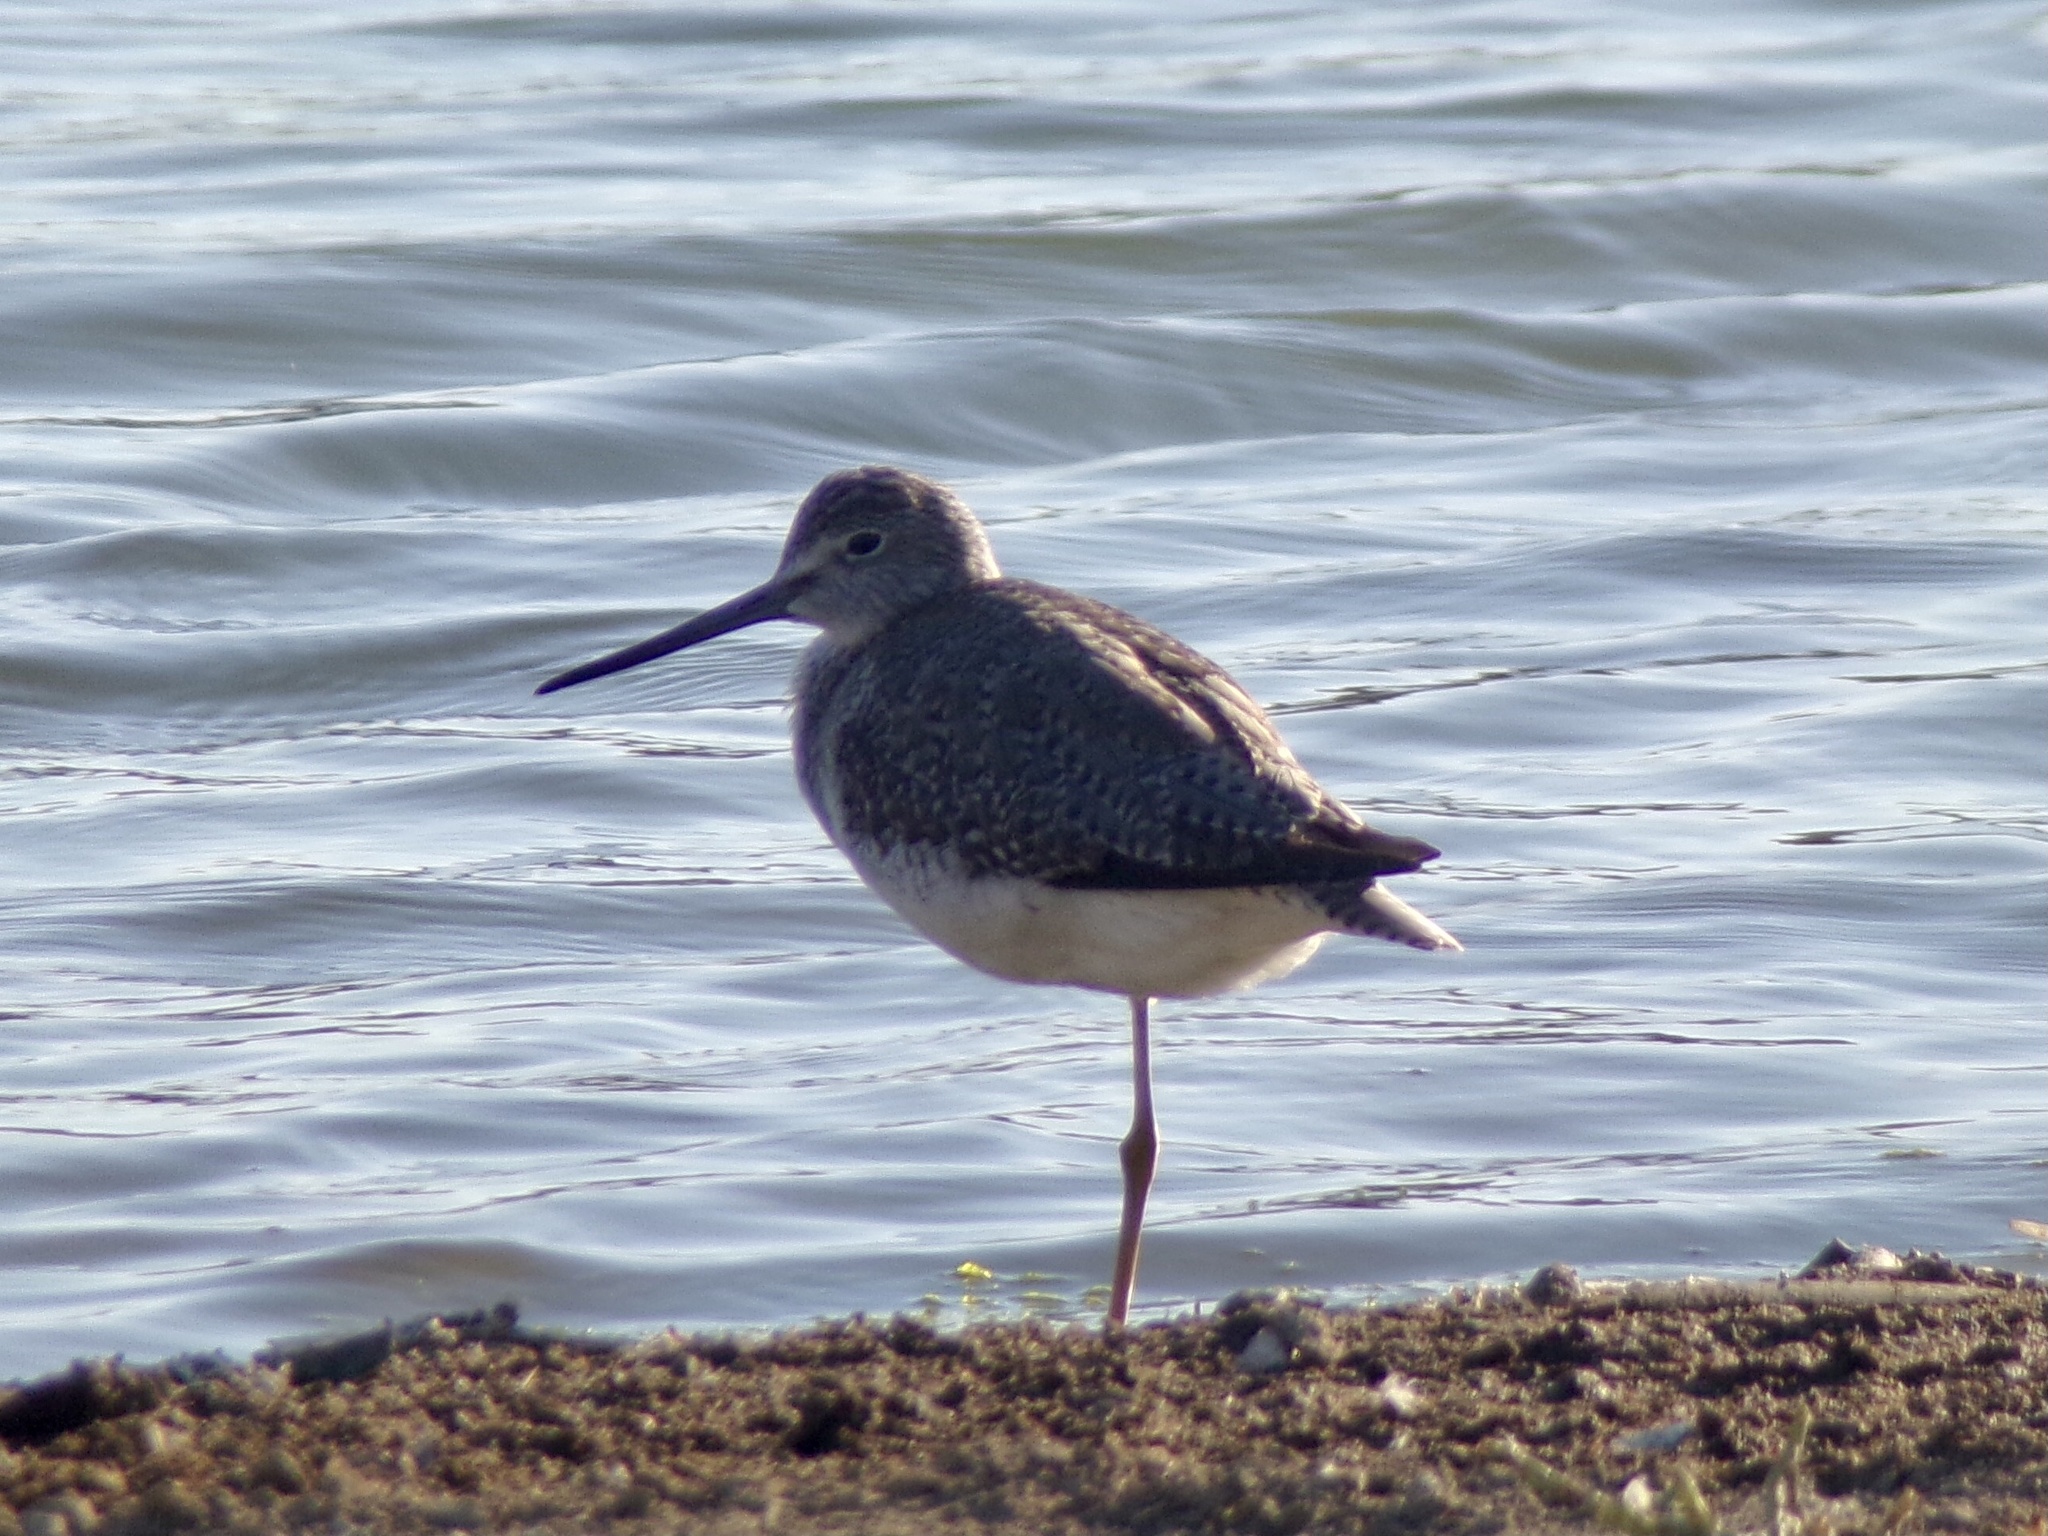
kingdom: Animalia
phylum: Chordata
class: Aves
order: Charadriiformes
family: Scolopacidae
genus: Tringa
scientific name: Tringa melanoleuca
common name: Greater yellowlegs
